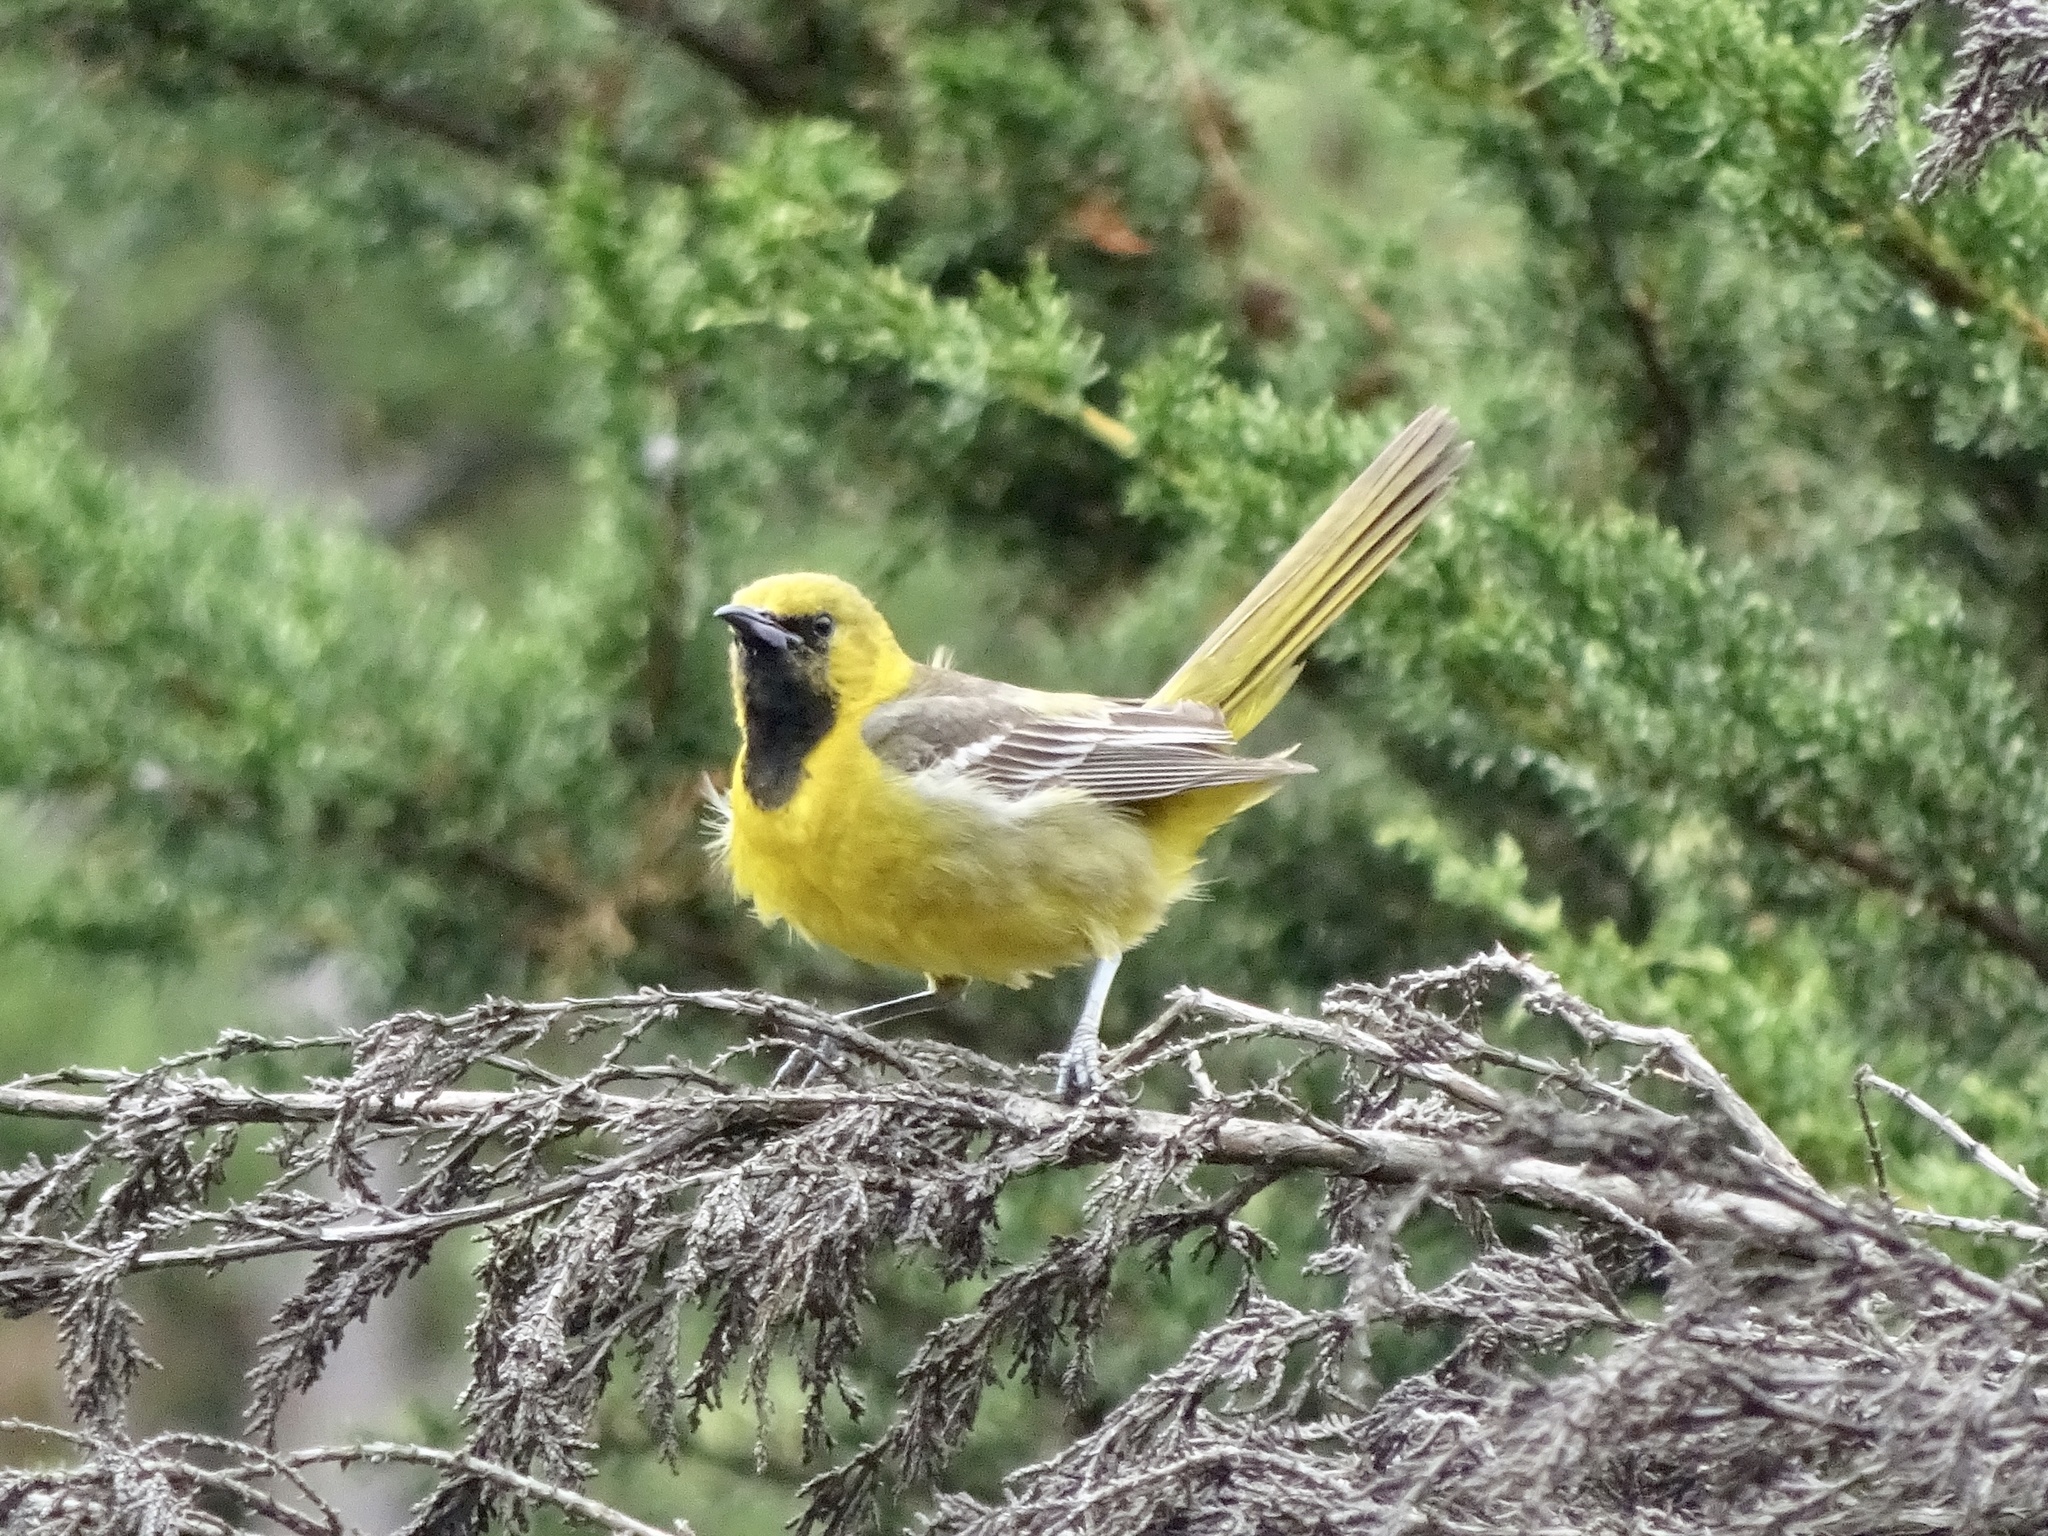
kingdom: Animalia
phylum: Chordata
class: Aves
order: Passeriformes
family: Icteridae
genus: Icterus
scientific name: Icterus cucullatus
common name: Hooded oriole
